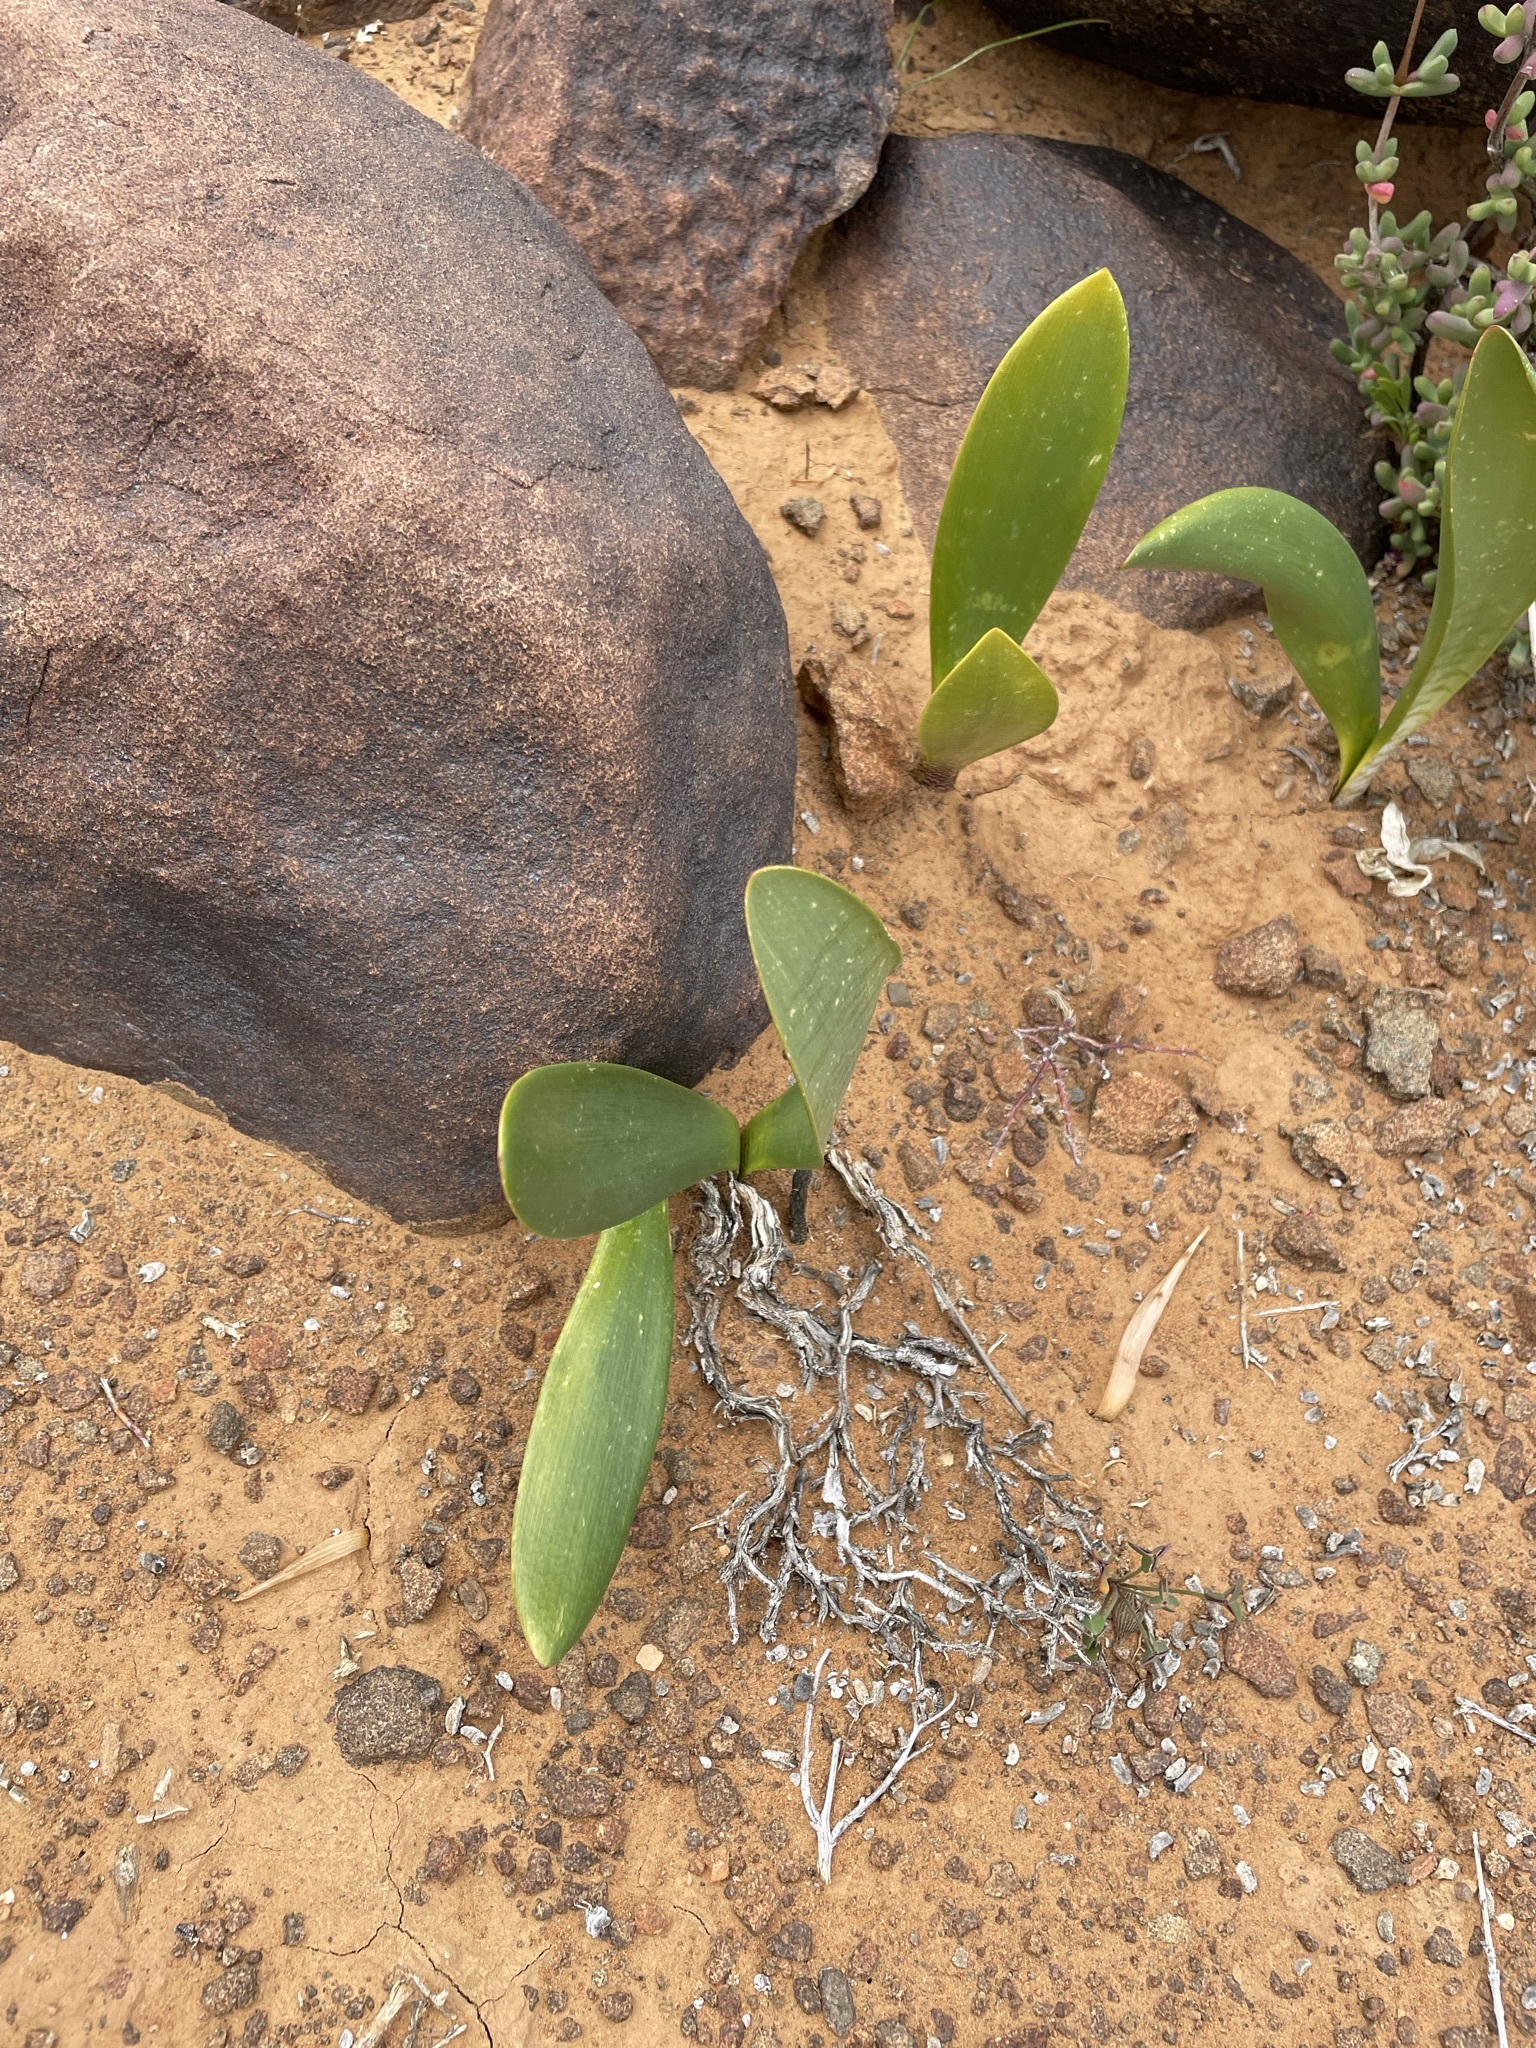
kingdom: Plantae
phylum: Tracheophyta
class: Liliopsida
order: Asparagales
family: Amaryllidaceae
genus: Haemanthus
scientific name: Haemanthus barkerae
